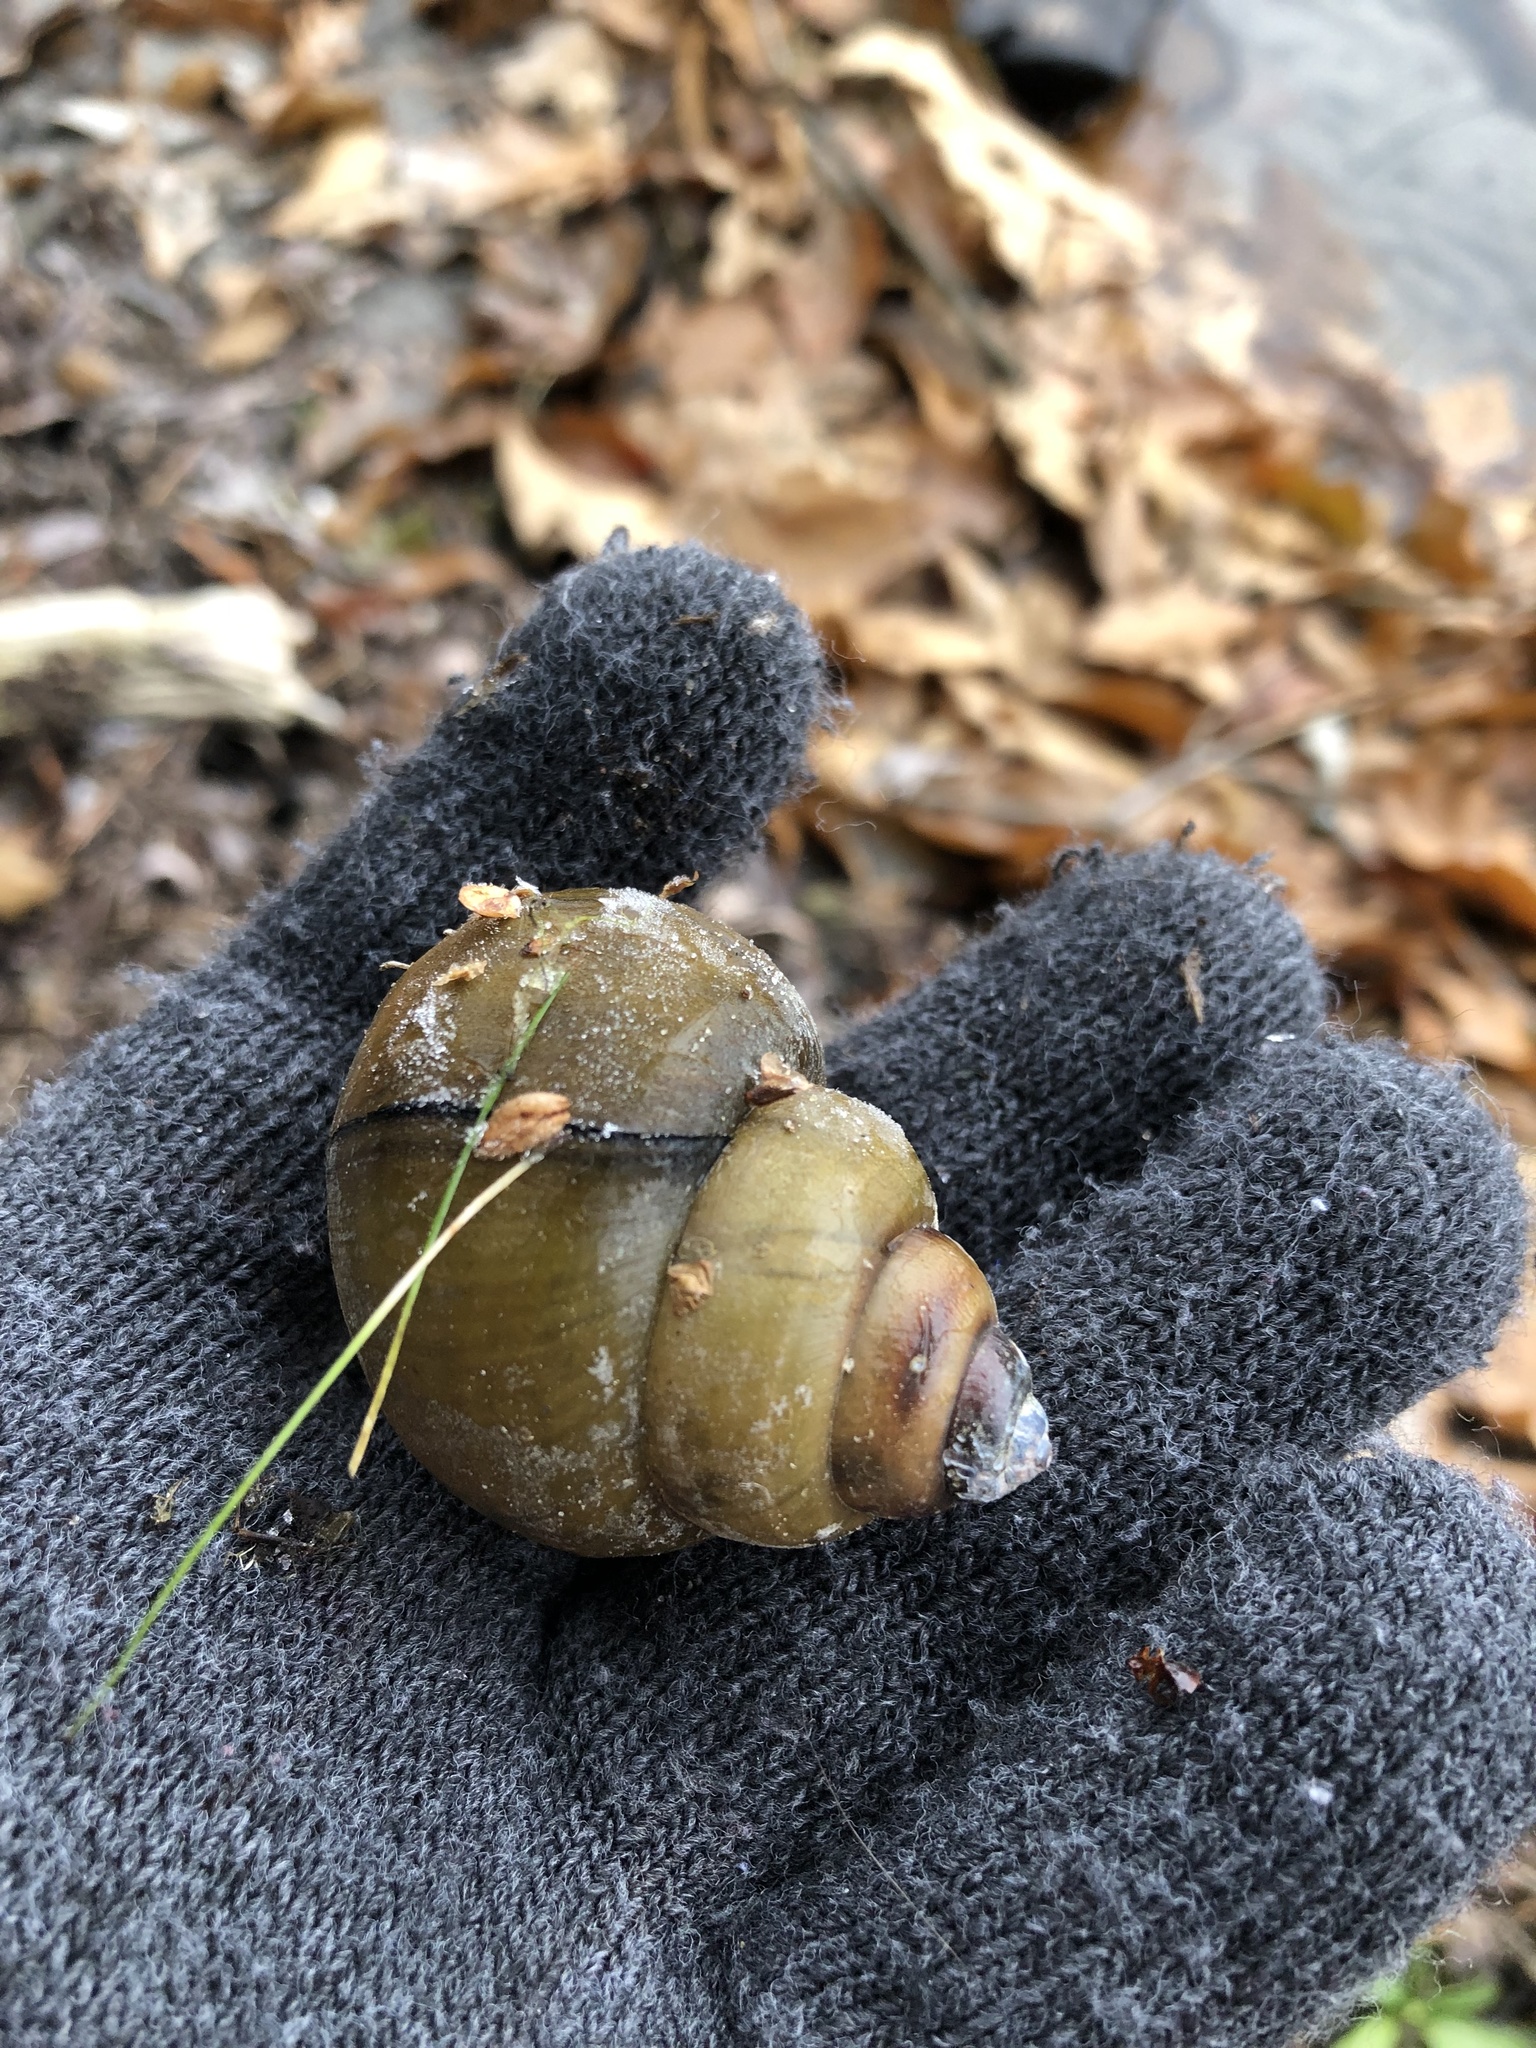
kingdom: Animalia
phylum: Mollusca
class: Gastropoda
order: Architaenioglossa
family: Viviparidae
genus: Cipangopaludina
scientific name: Cipangopaludina chinensis
